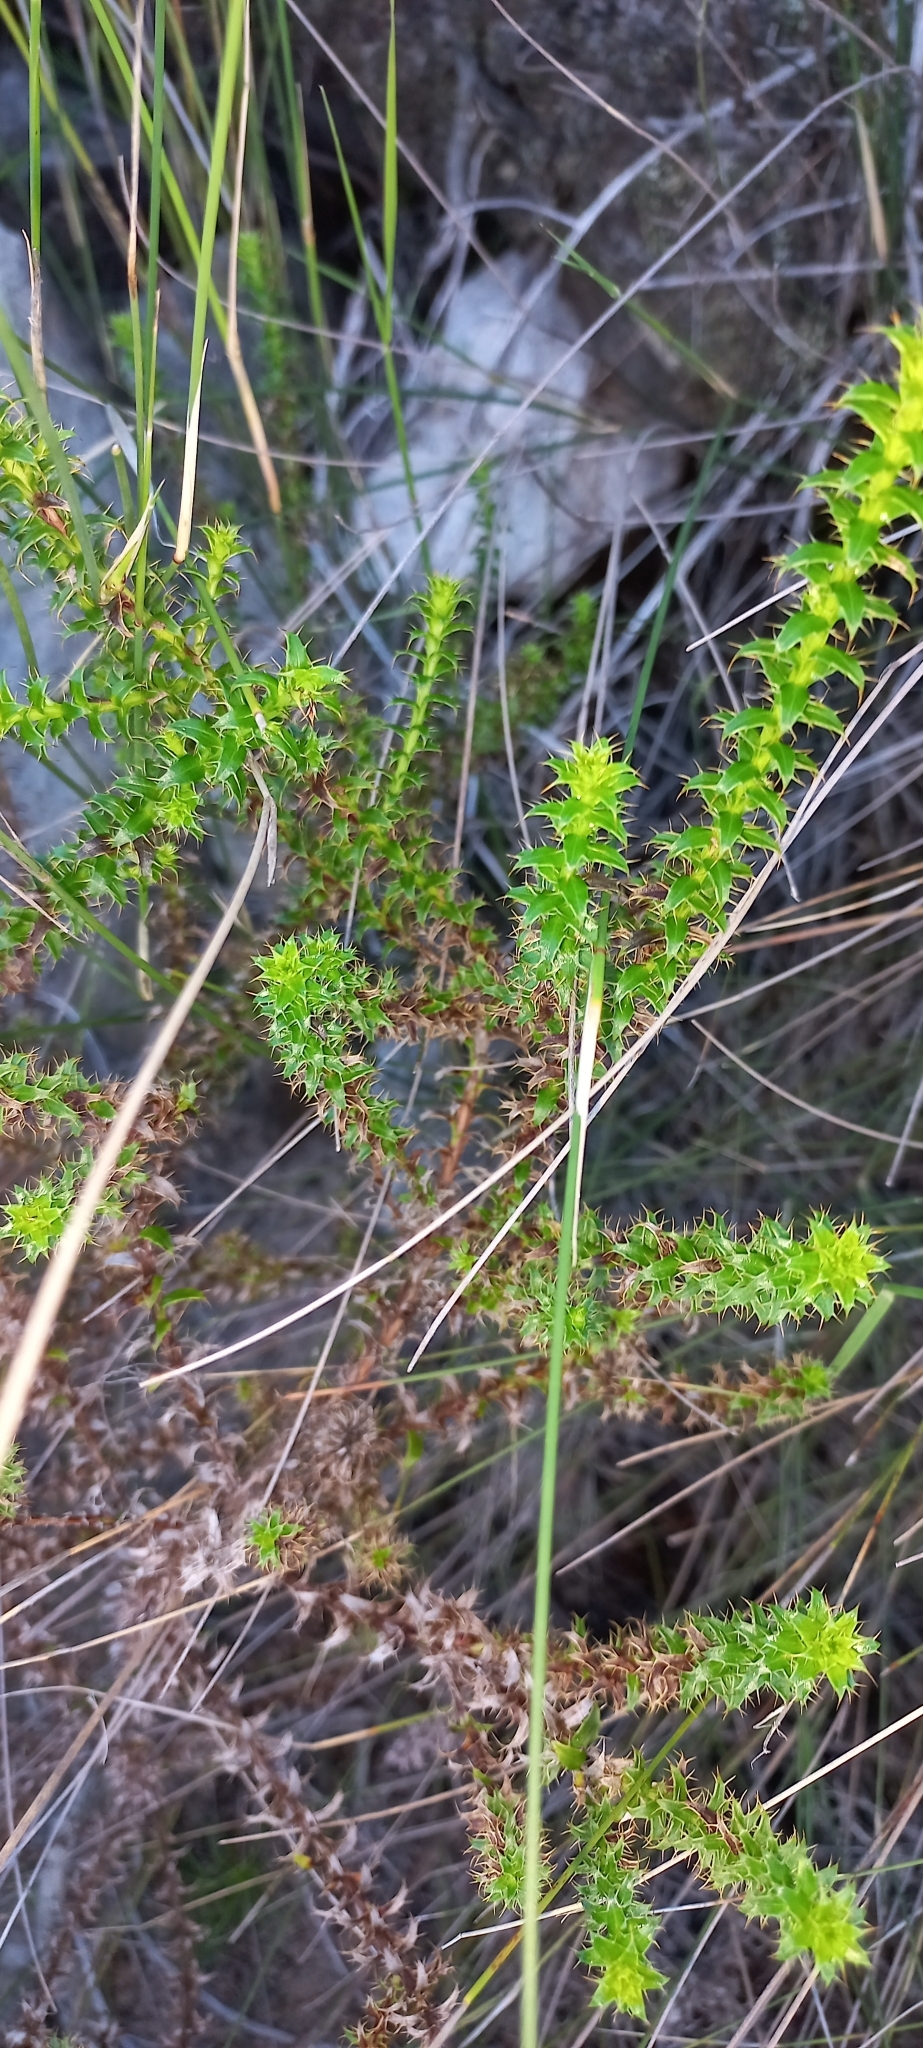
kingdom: Plantae
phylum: Tracheophyta
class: Magnoliopsida
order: Asterales
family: Asteraceae
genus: Cullumia
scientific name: Cullumia setosa
